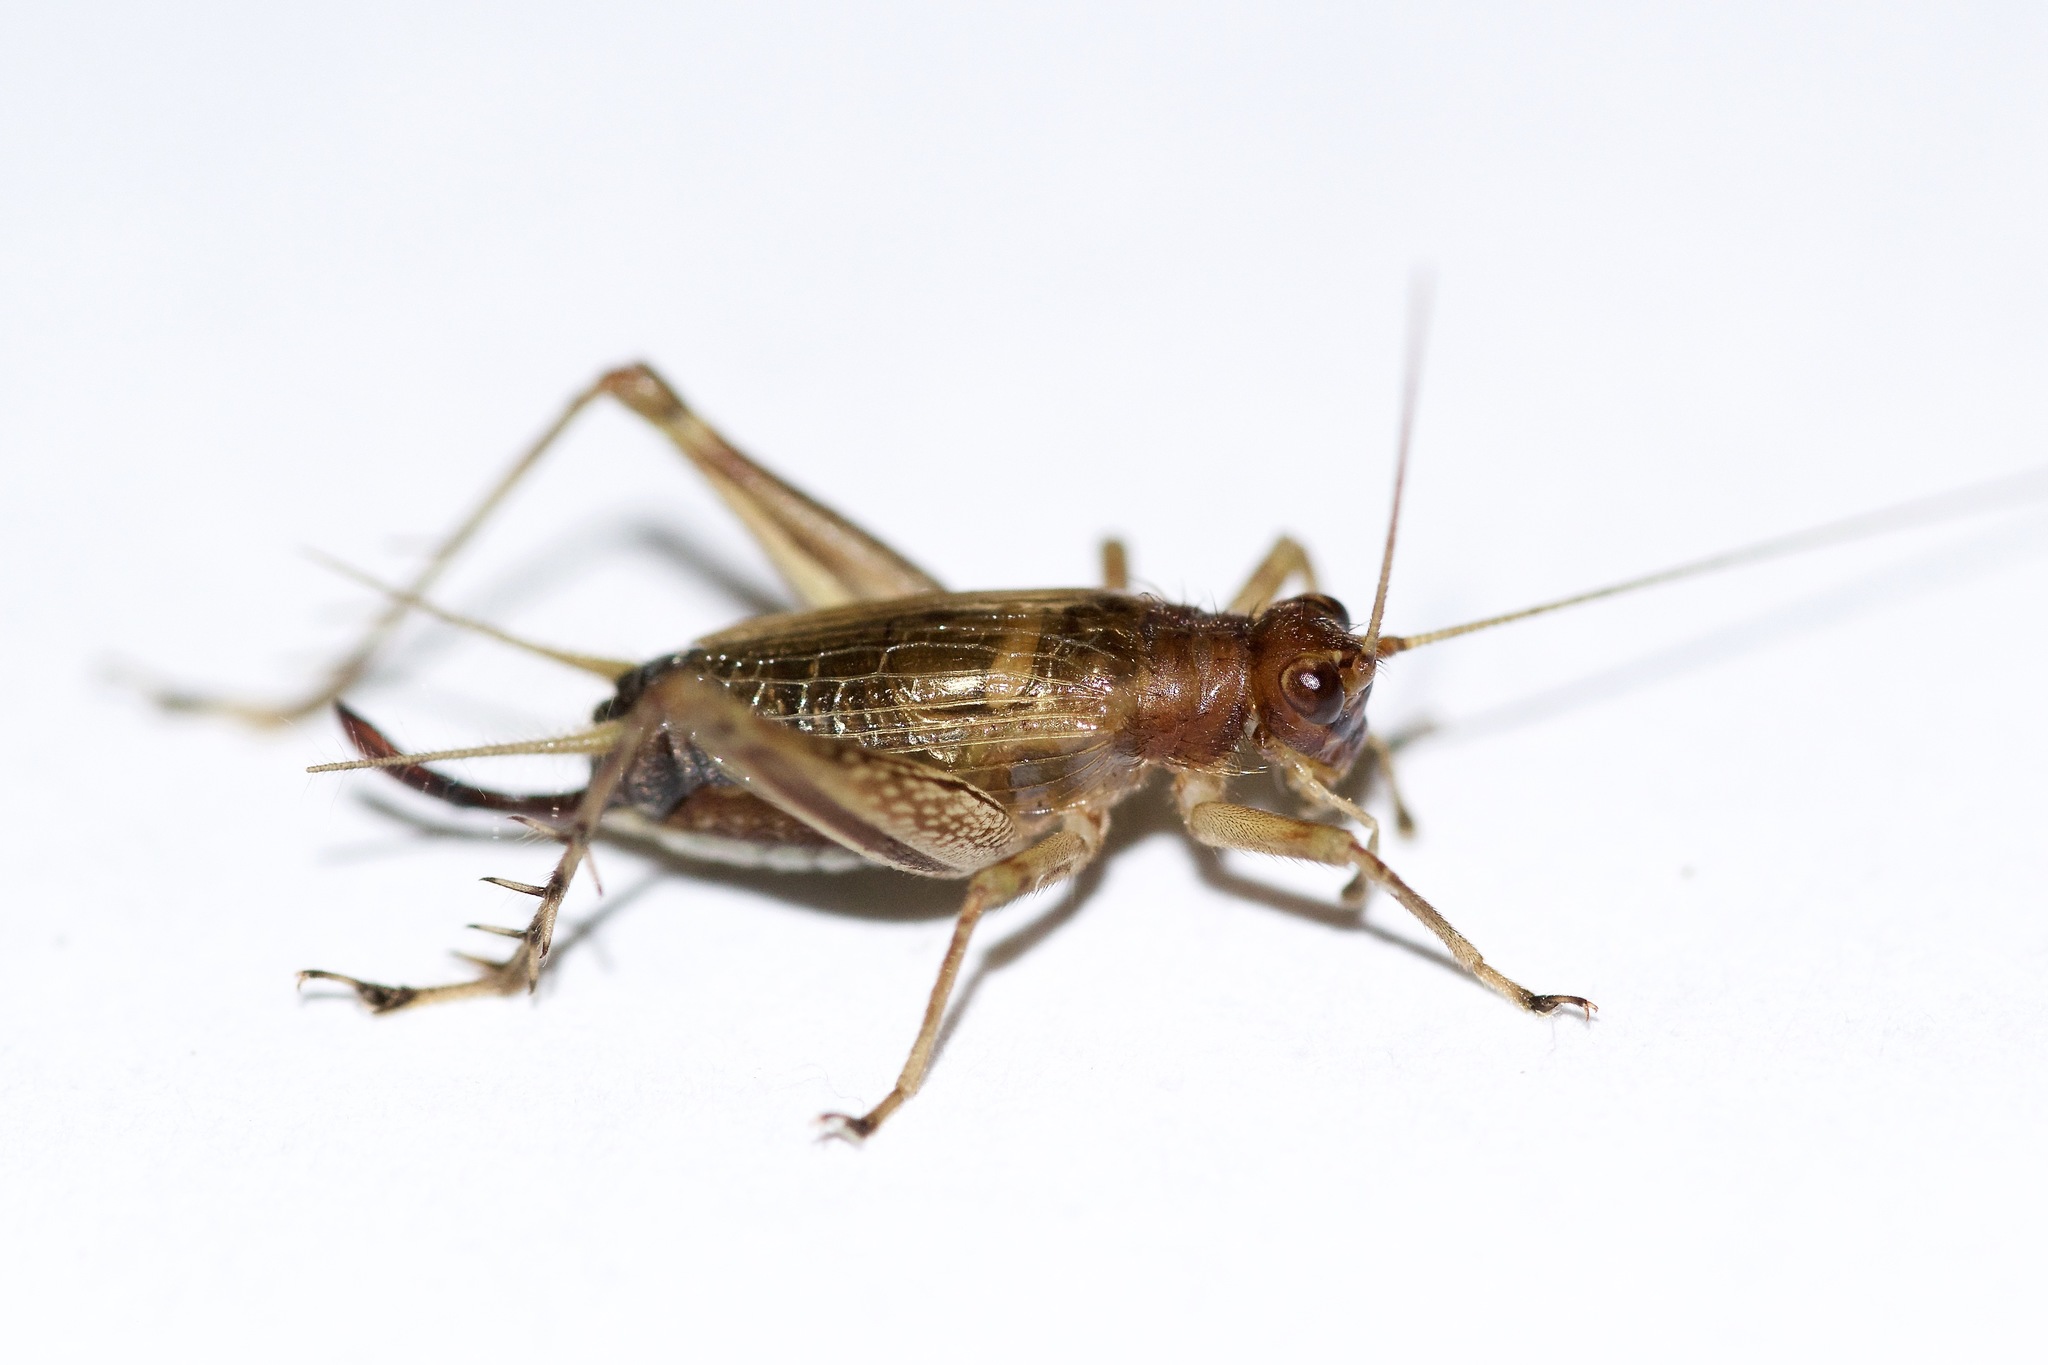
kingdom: Animalia
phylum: Arthropoda
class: Insecta
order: Orthoptera
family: Trigonidiidae
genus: Anaxipha
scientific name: Anaxipha exigua
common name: Say's bush cricket
